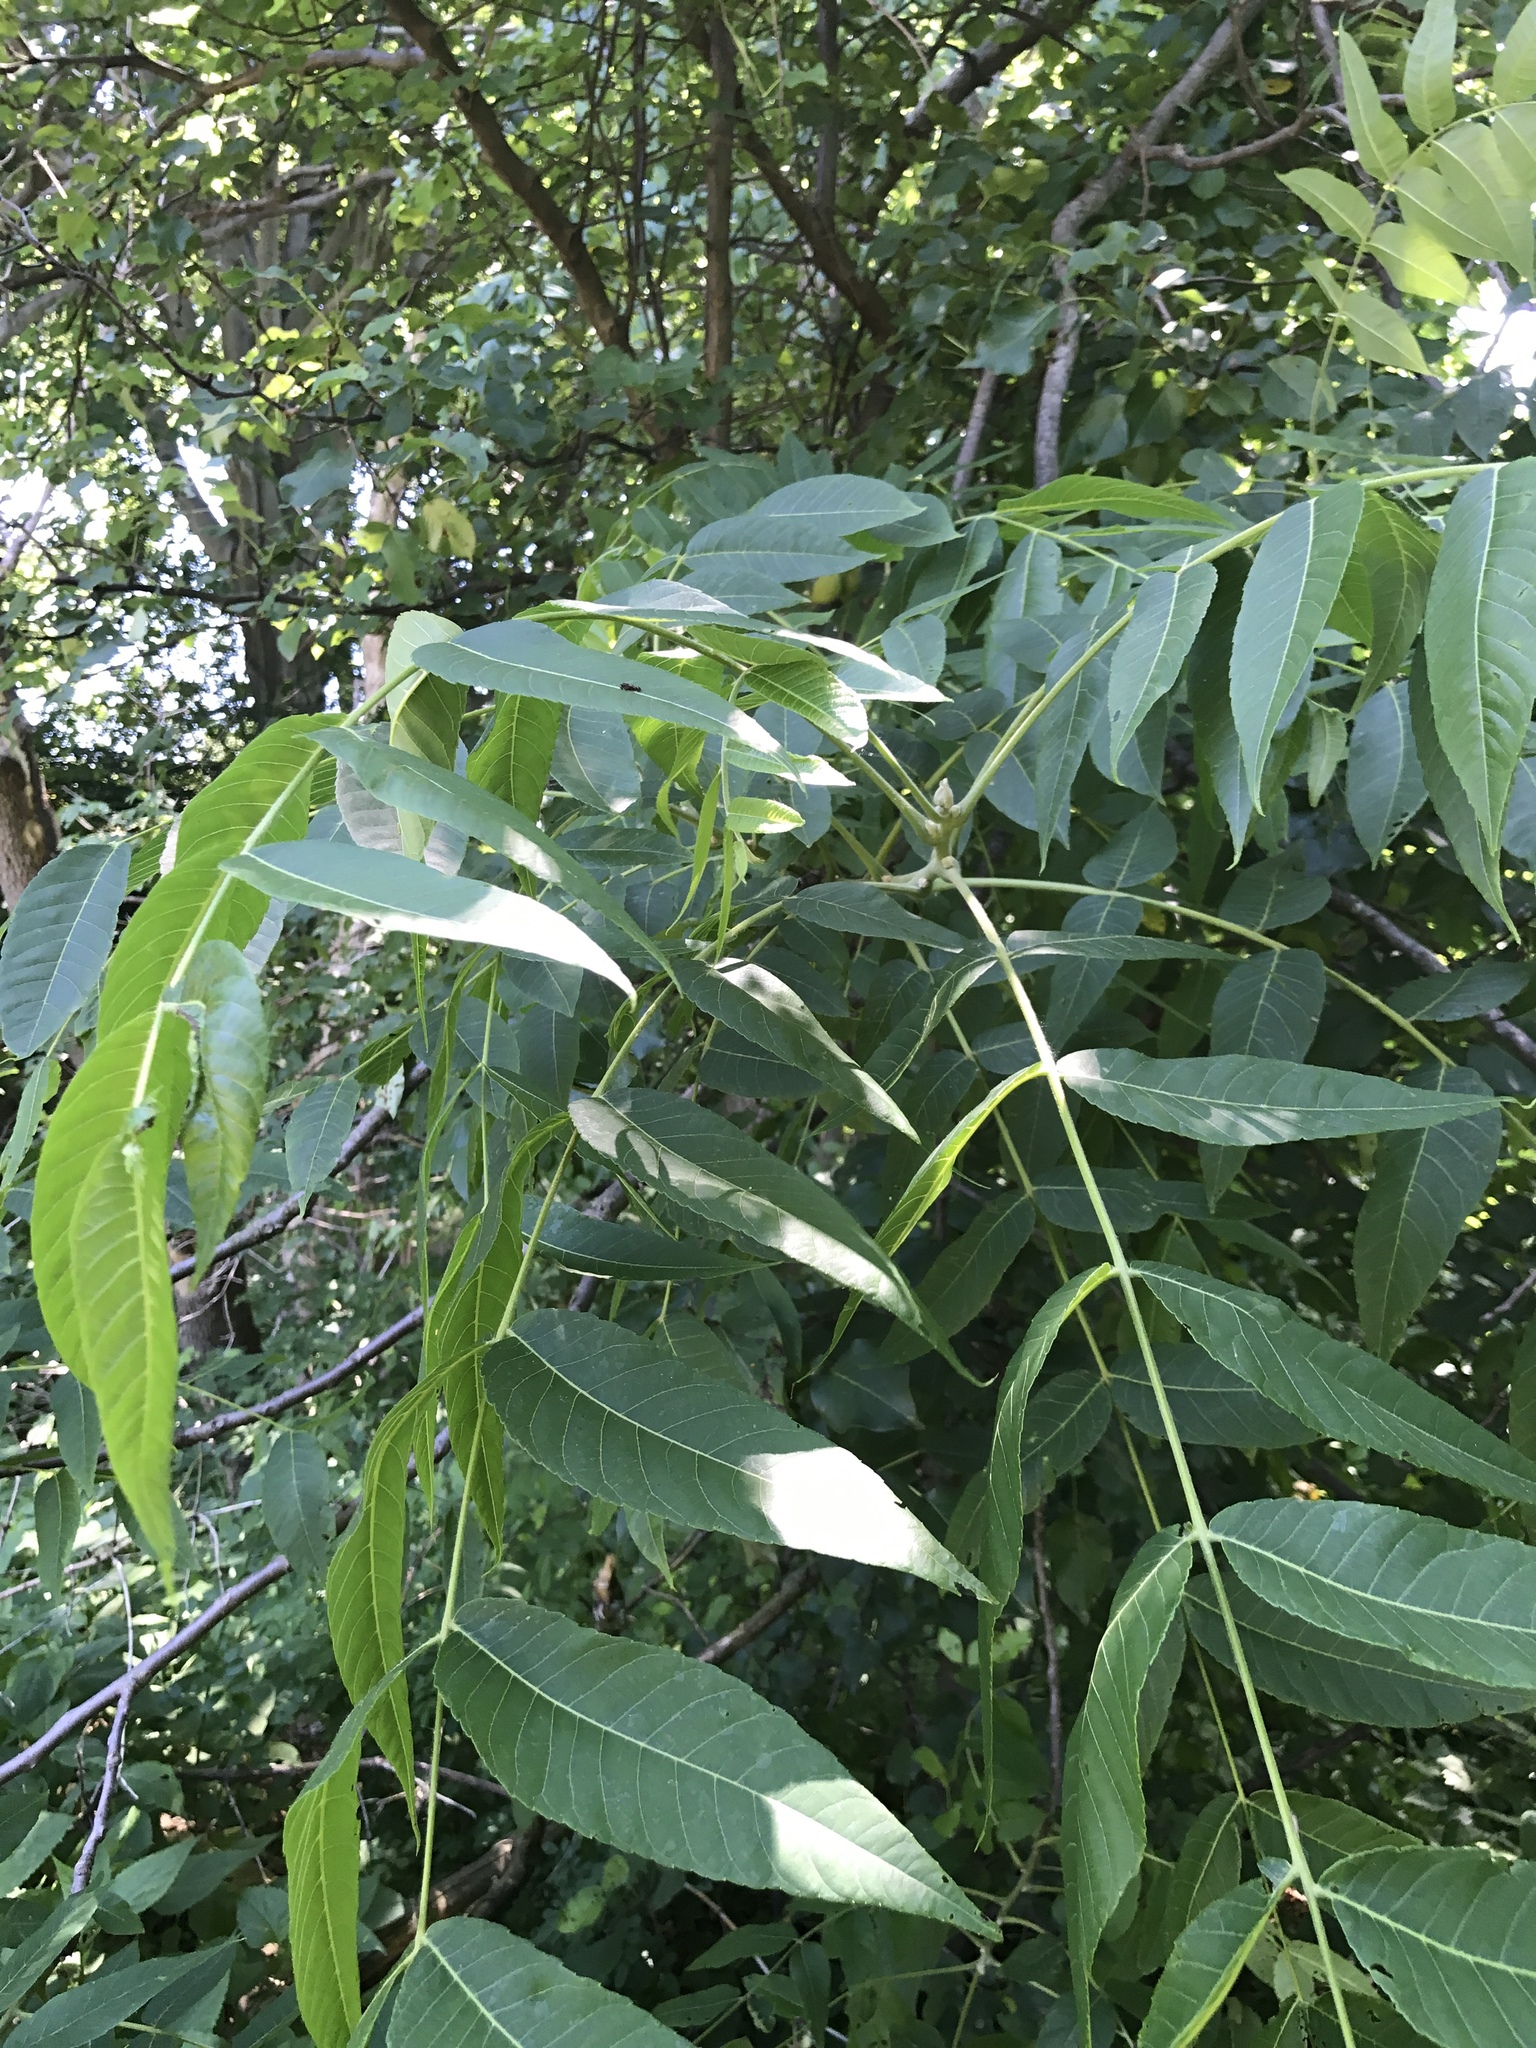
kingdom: Plantae
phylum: Tracheophyta
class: Magnoliopsida
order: Fagales
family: Juglandaceae
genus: Juglans
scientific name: Juglans nigra
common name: Black walnut
